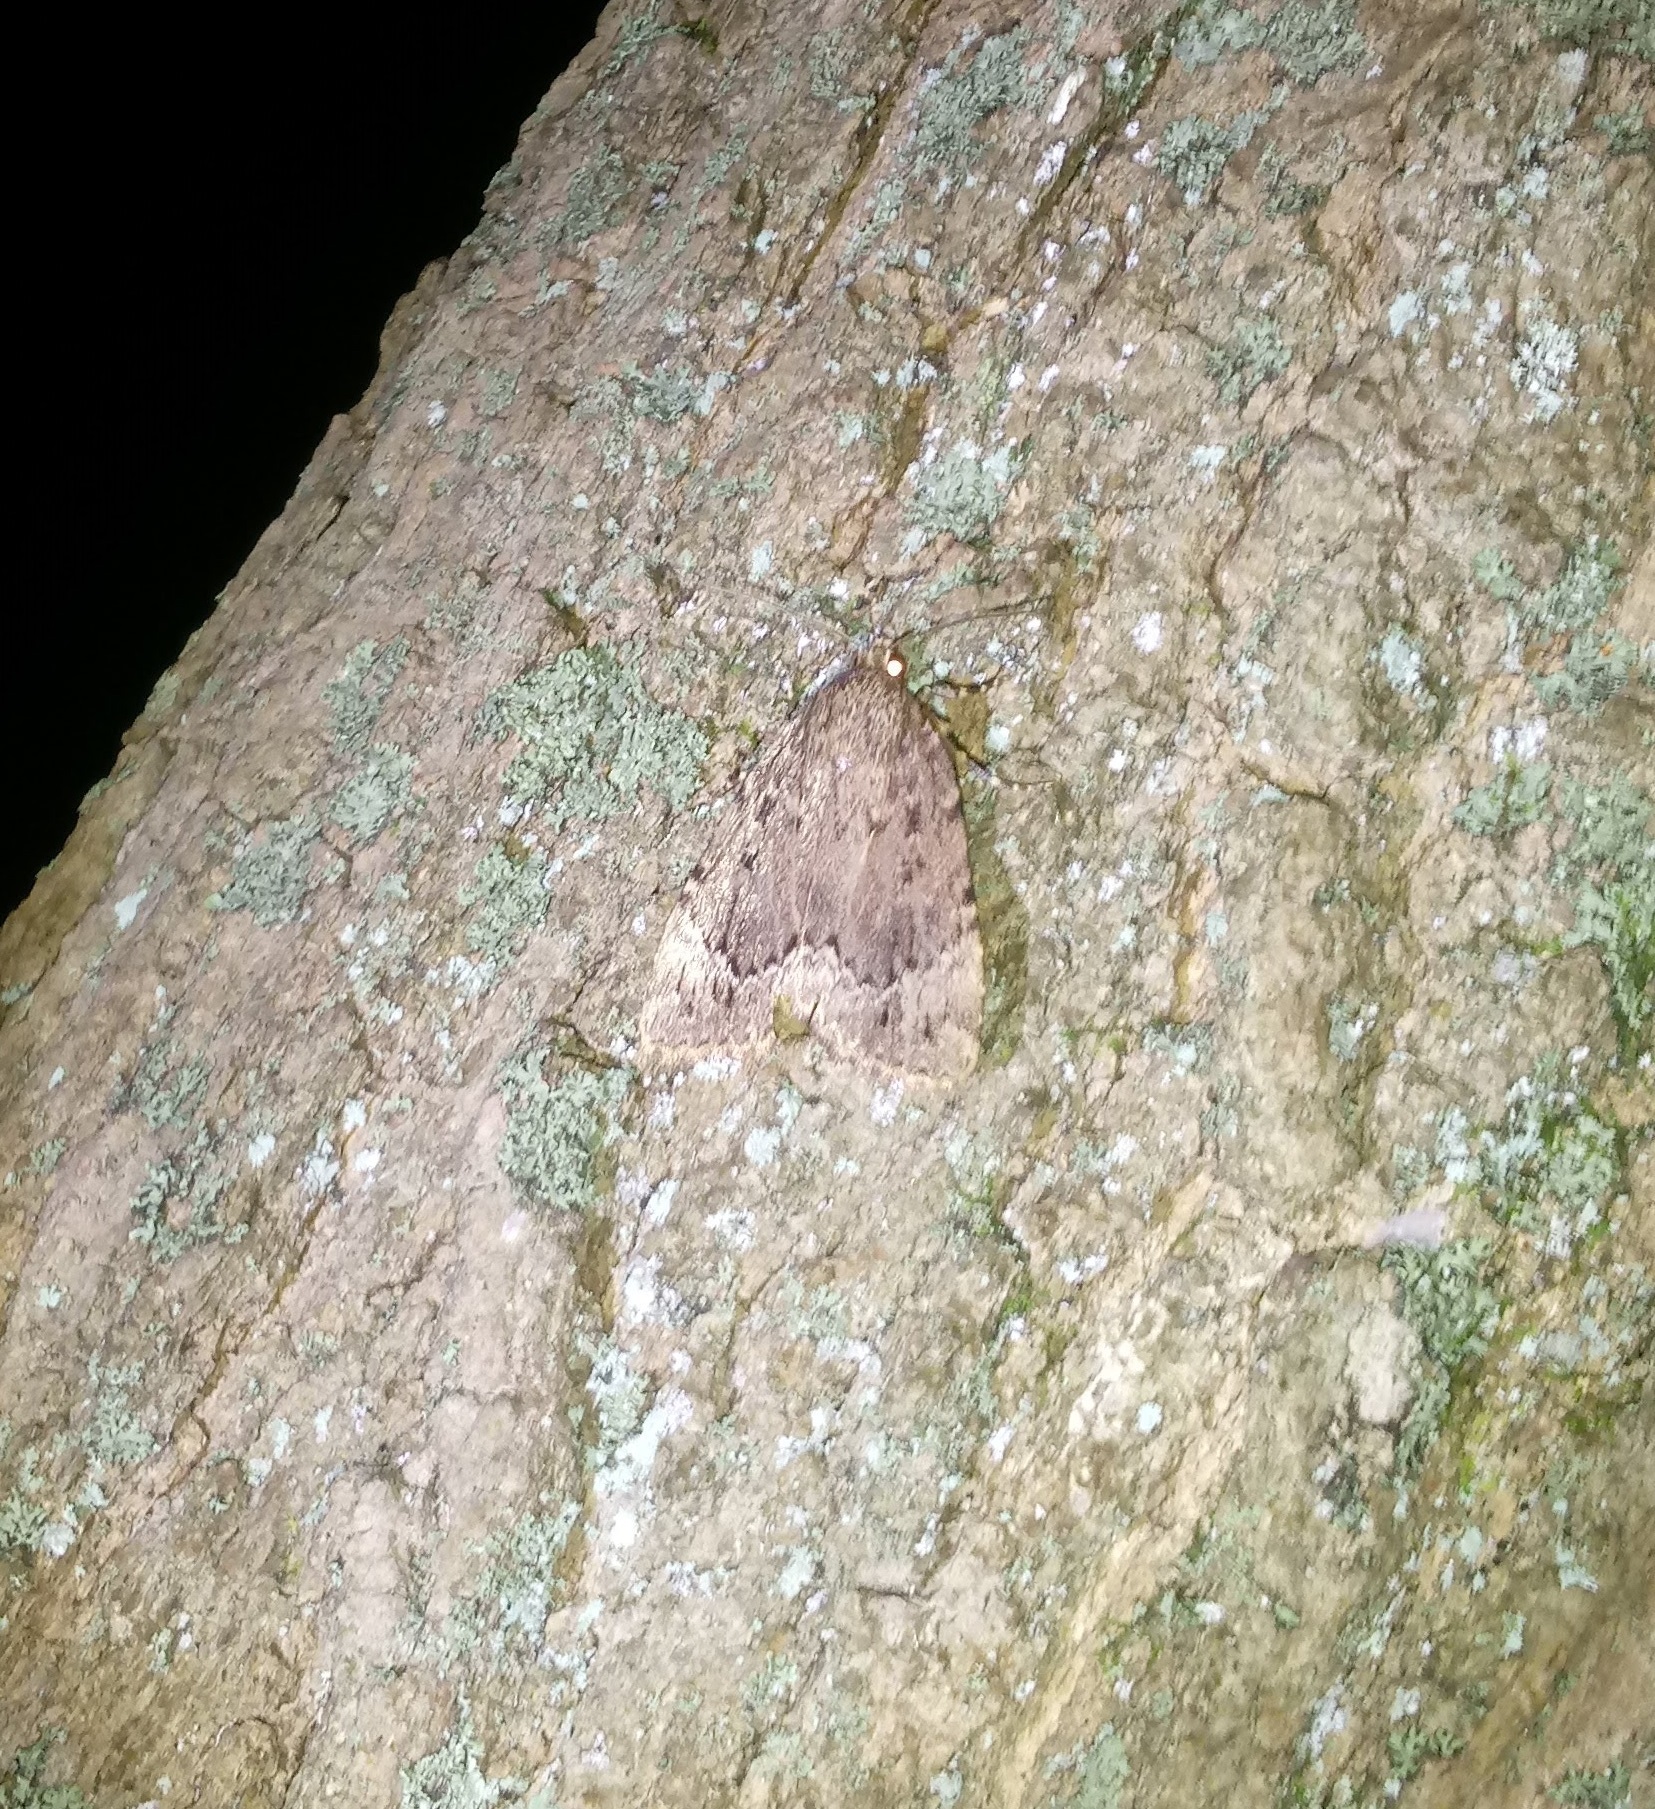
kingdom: Animalia
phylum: Arthropoda
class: Insecta
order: Lepidoptera
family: Noctuidae
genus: Amphipyra
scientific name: Amphipyra pyramidoides
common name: American copper underwing
